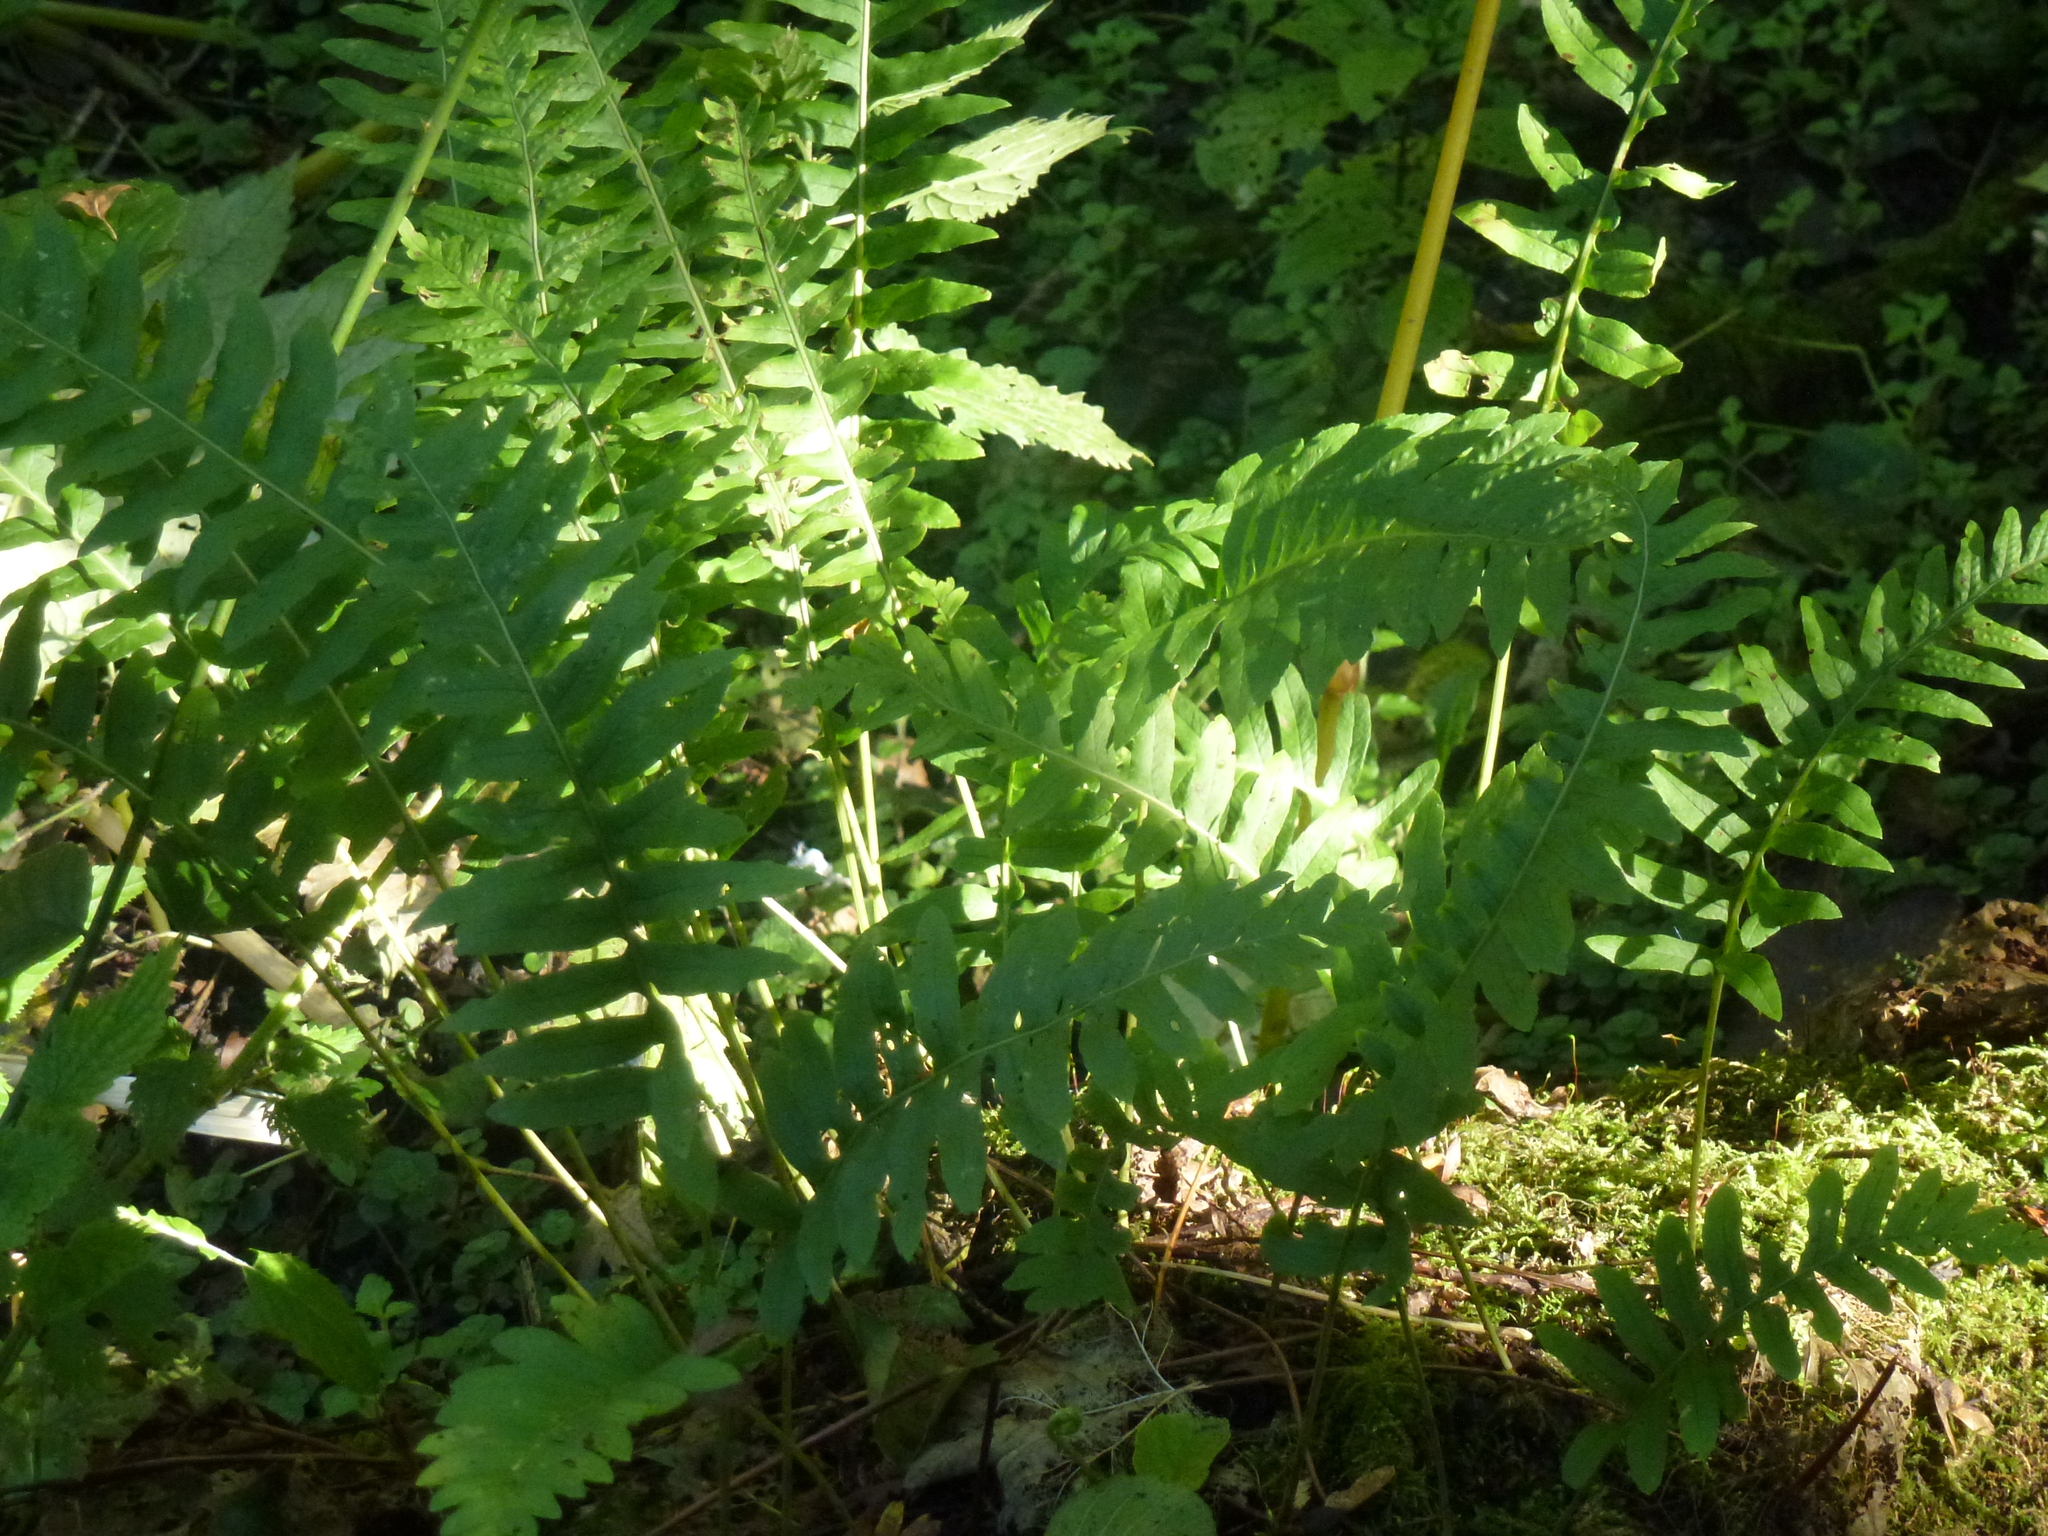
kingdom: Plantae
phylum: Tracheophyta
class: Polypodiopsida
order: Polypodiales
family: Polypodiaceae
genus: Polypodium
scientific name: Polypodium vulgare
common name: Common polypody
